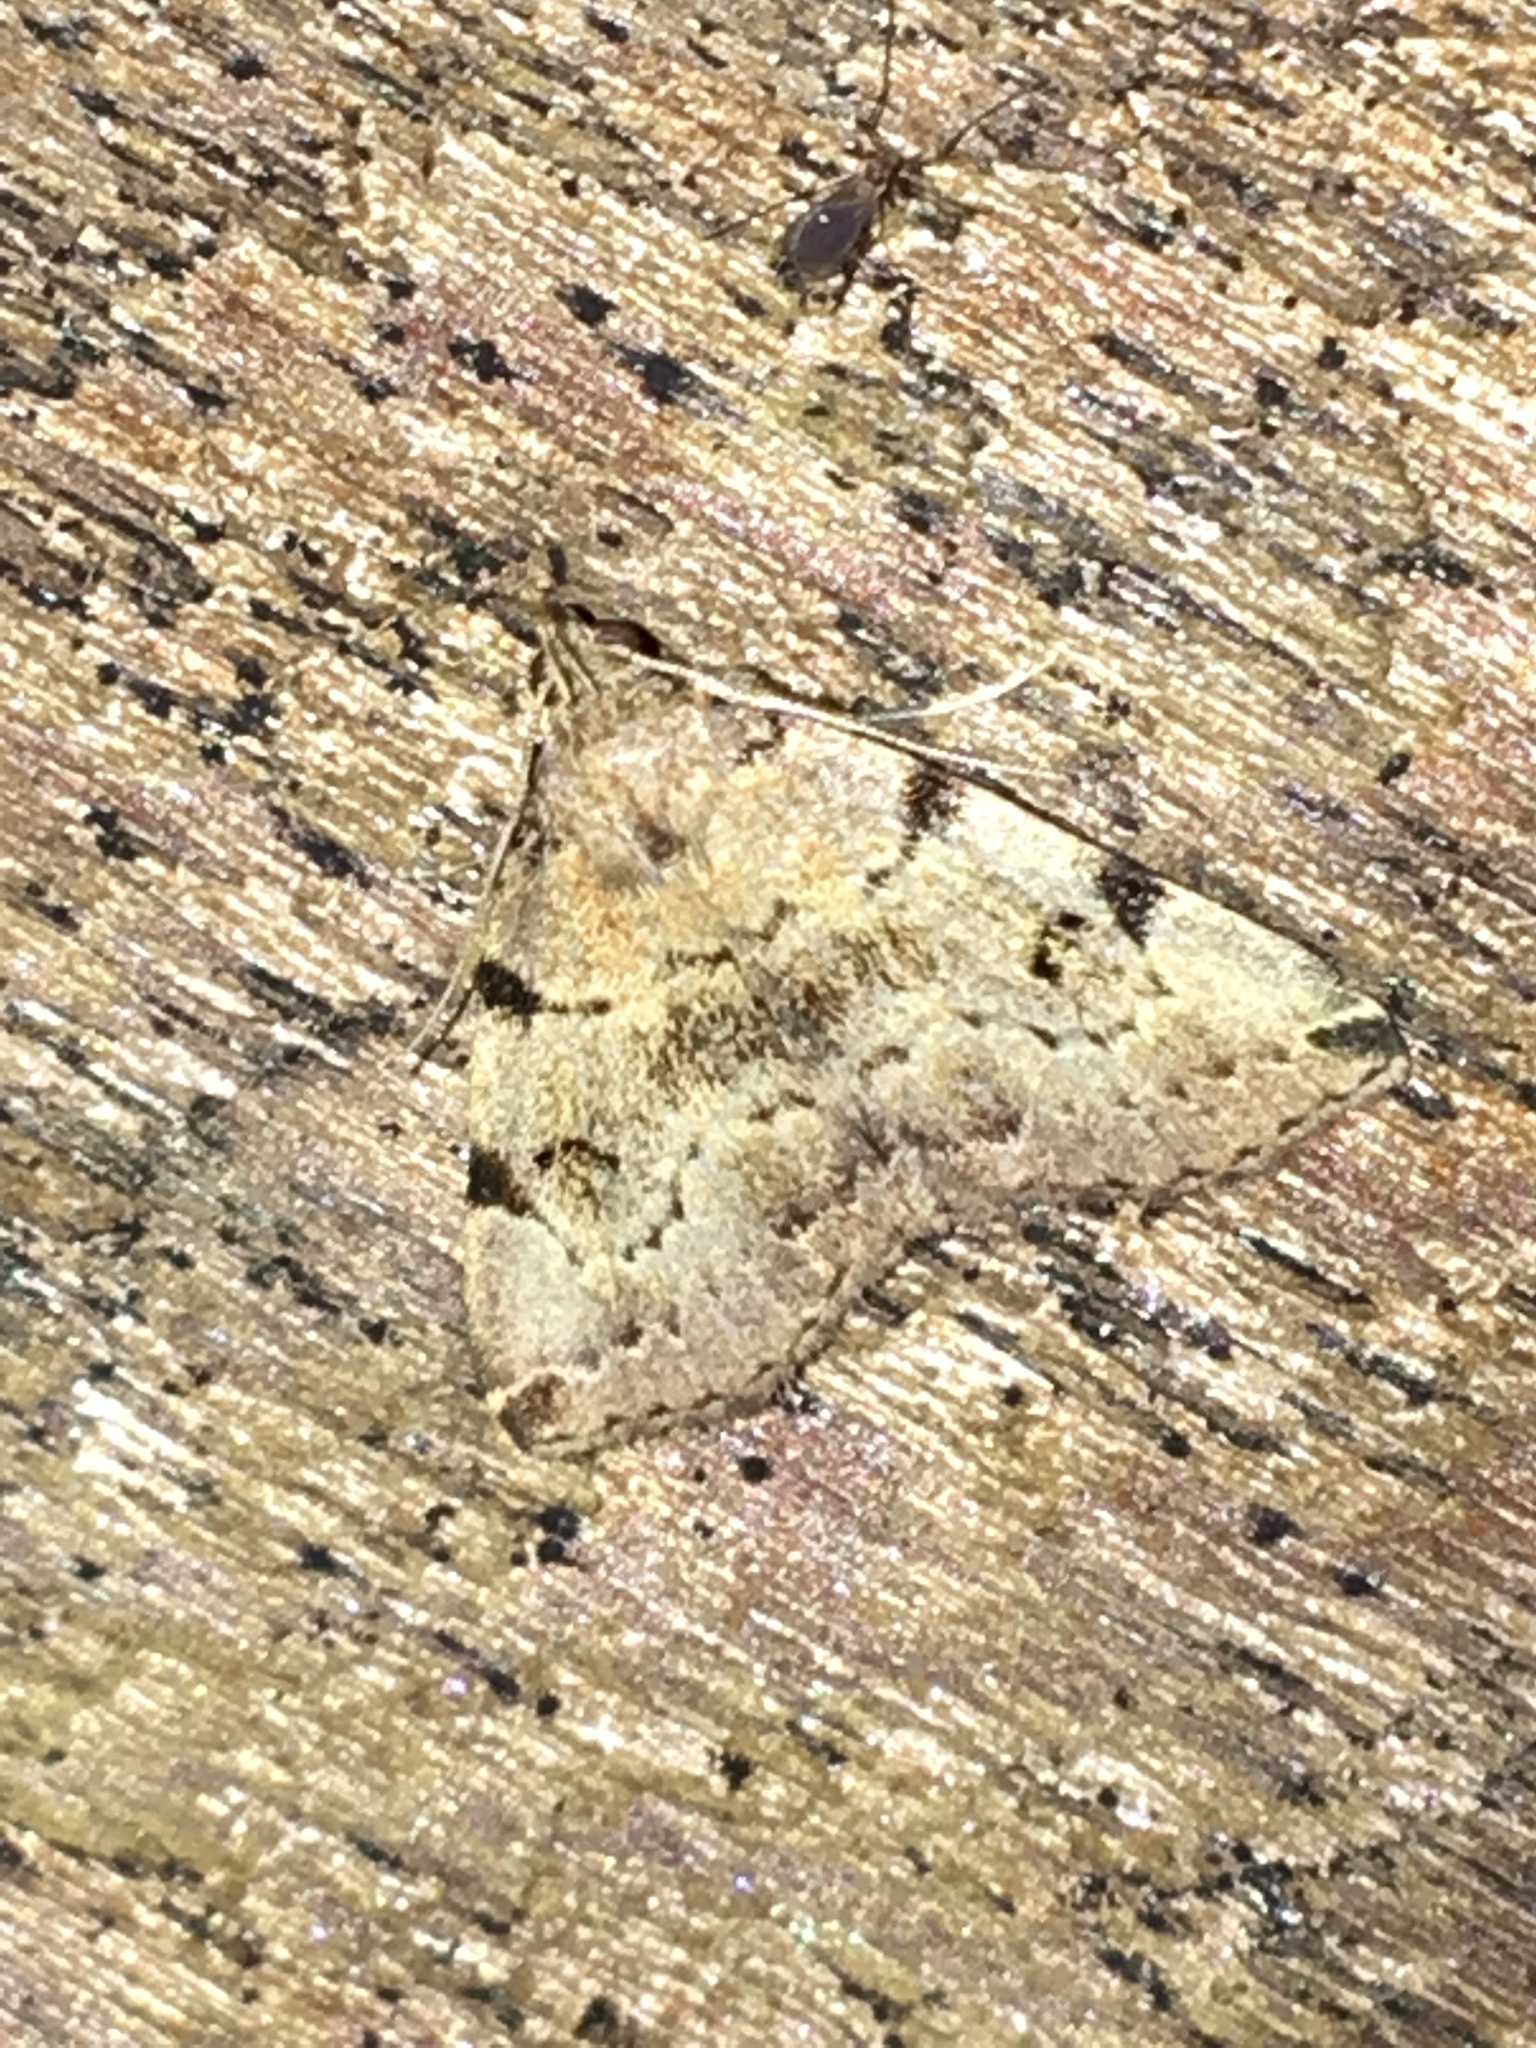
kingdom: Animalia
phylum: Arthropoda
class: Insecta
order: Lepidoptera
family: Erebidae
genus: Zanclognatha
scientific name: Zanclognatha lituralis
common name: Lettered fan-foot
